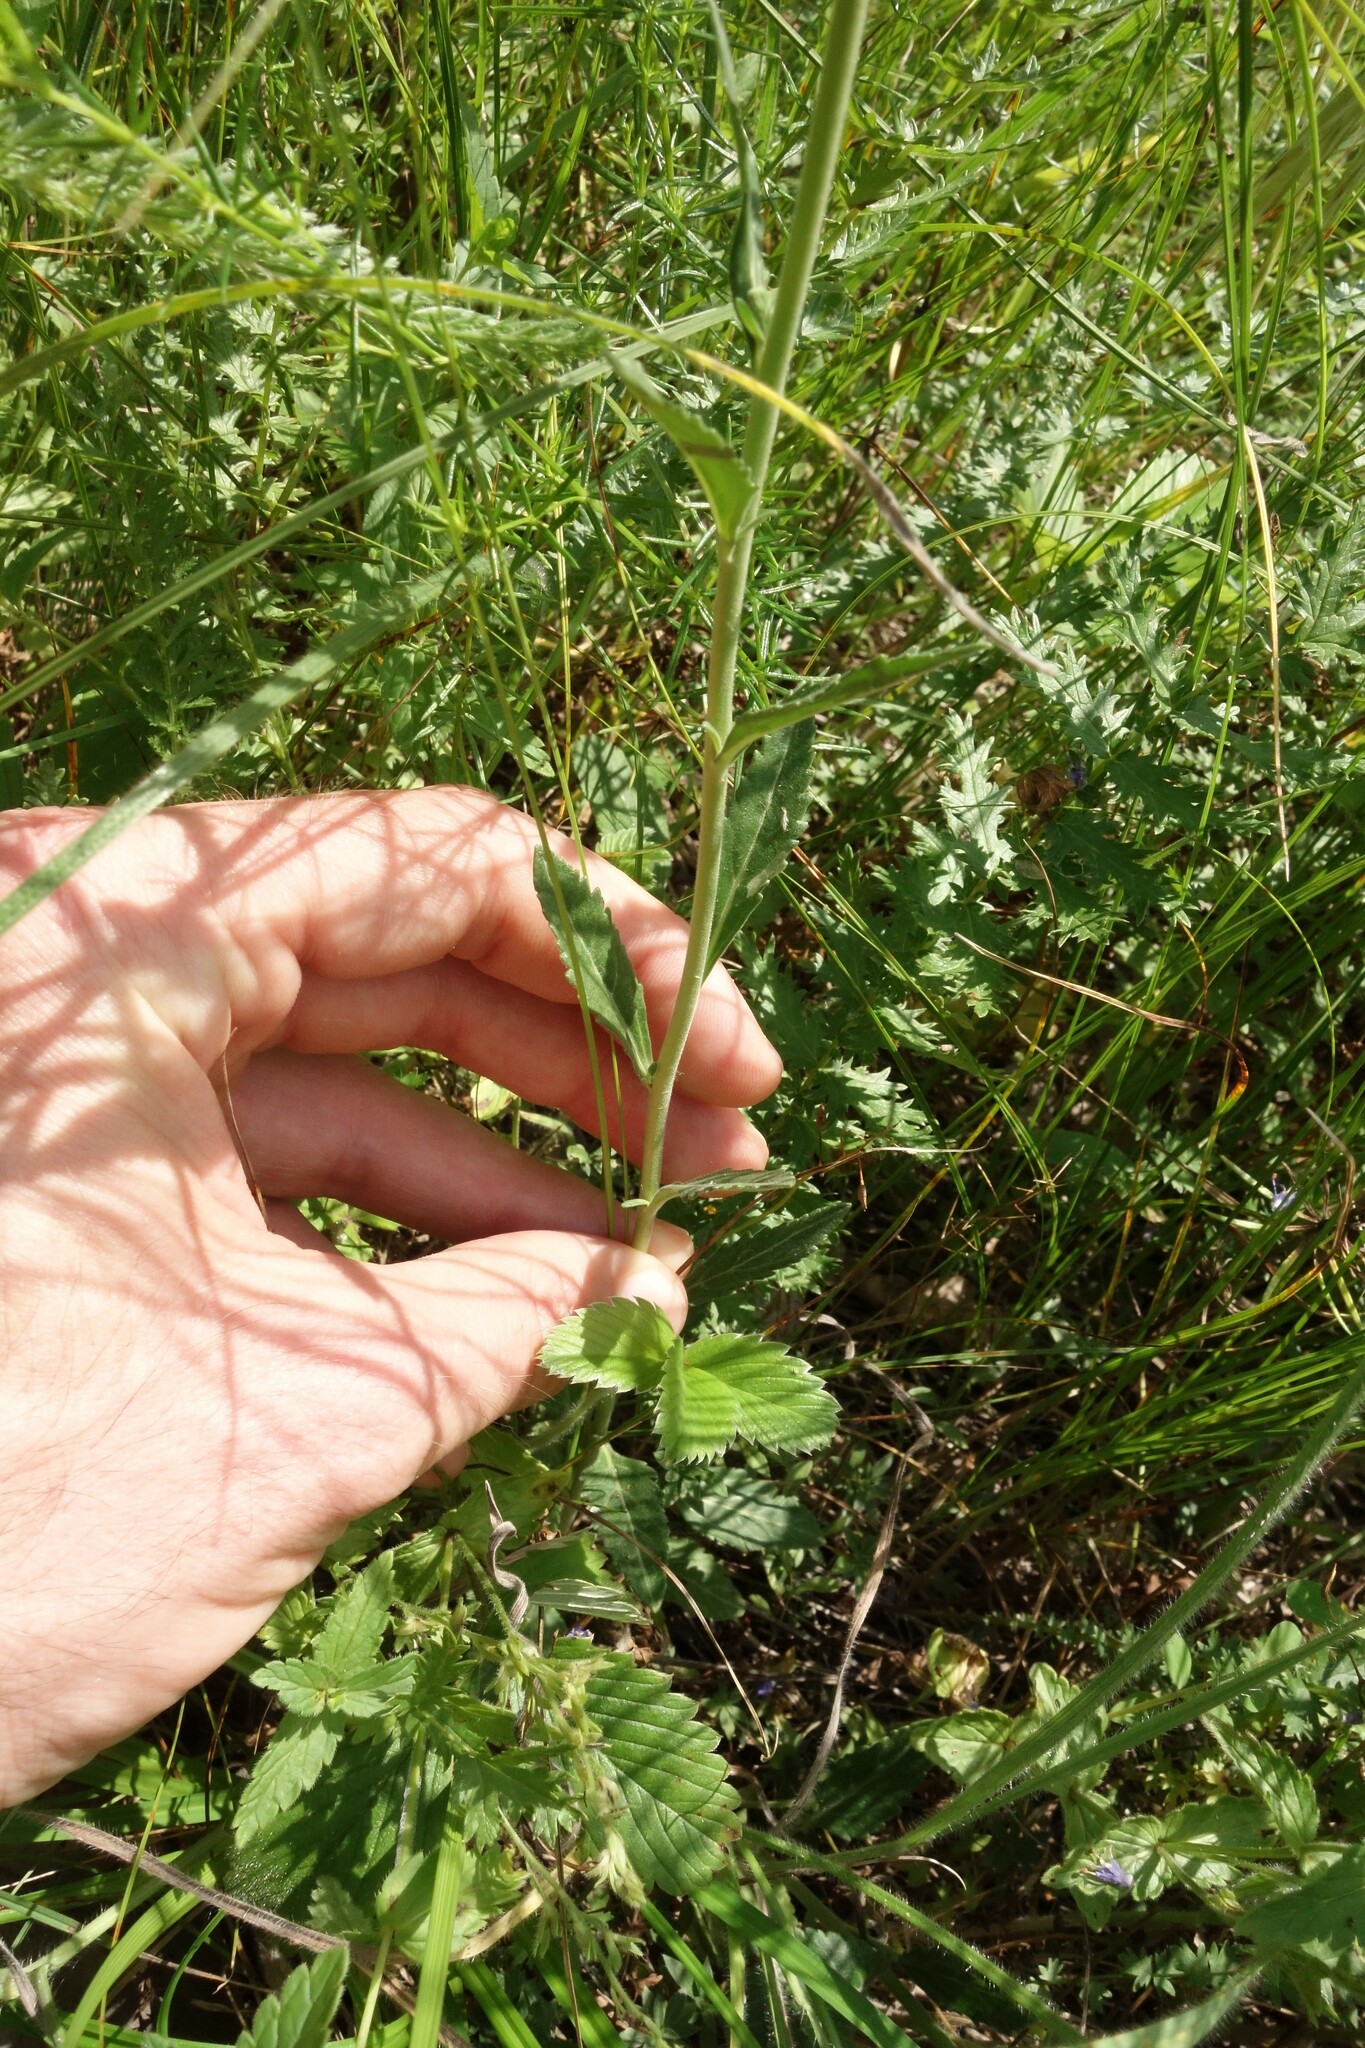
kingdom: Plantae
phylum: Tracheophyta
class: Magnoliopsida
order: Lamiales
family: Plantaginaceae
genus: Veronica
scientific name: Veronica spicata
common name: Spiked speedwell
